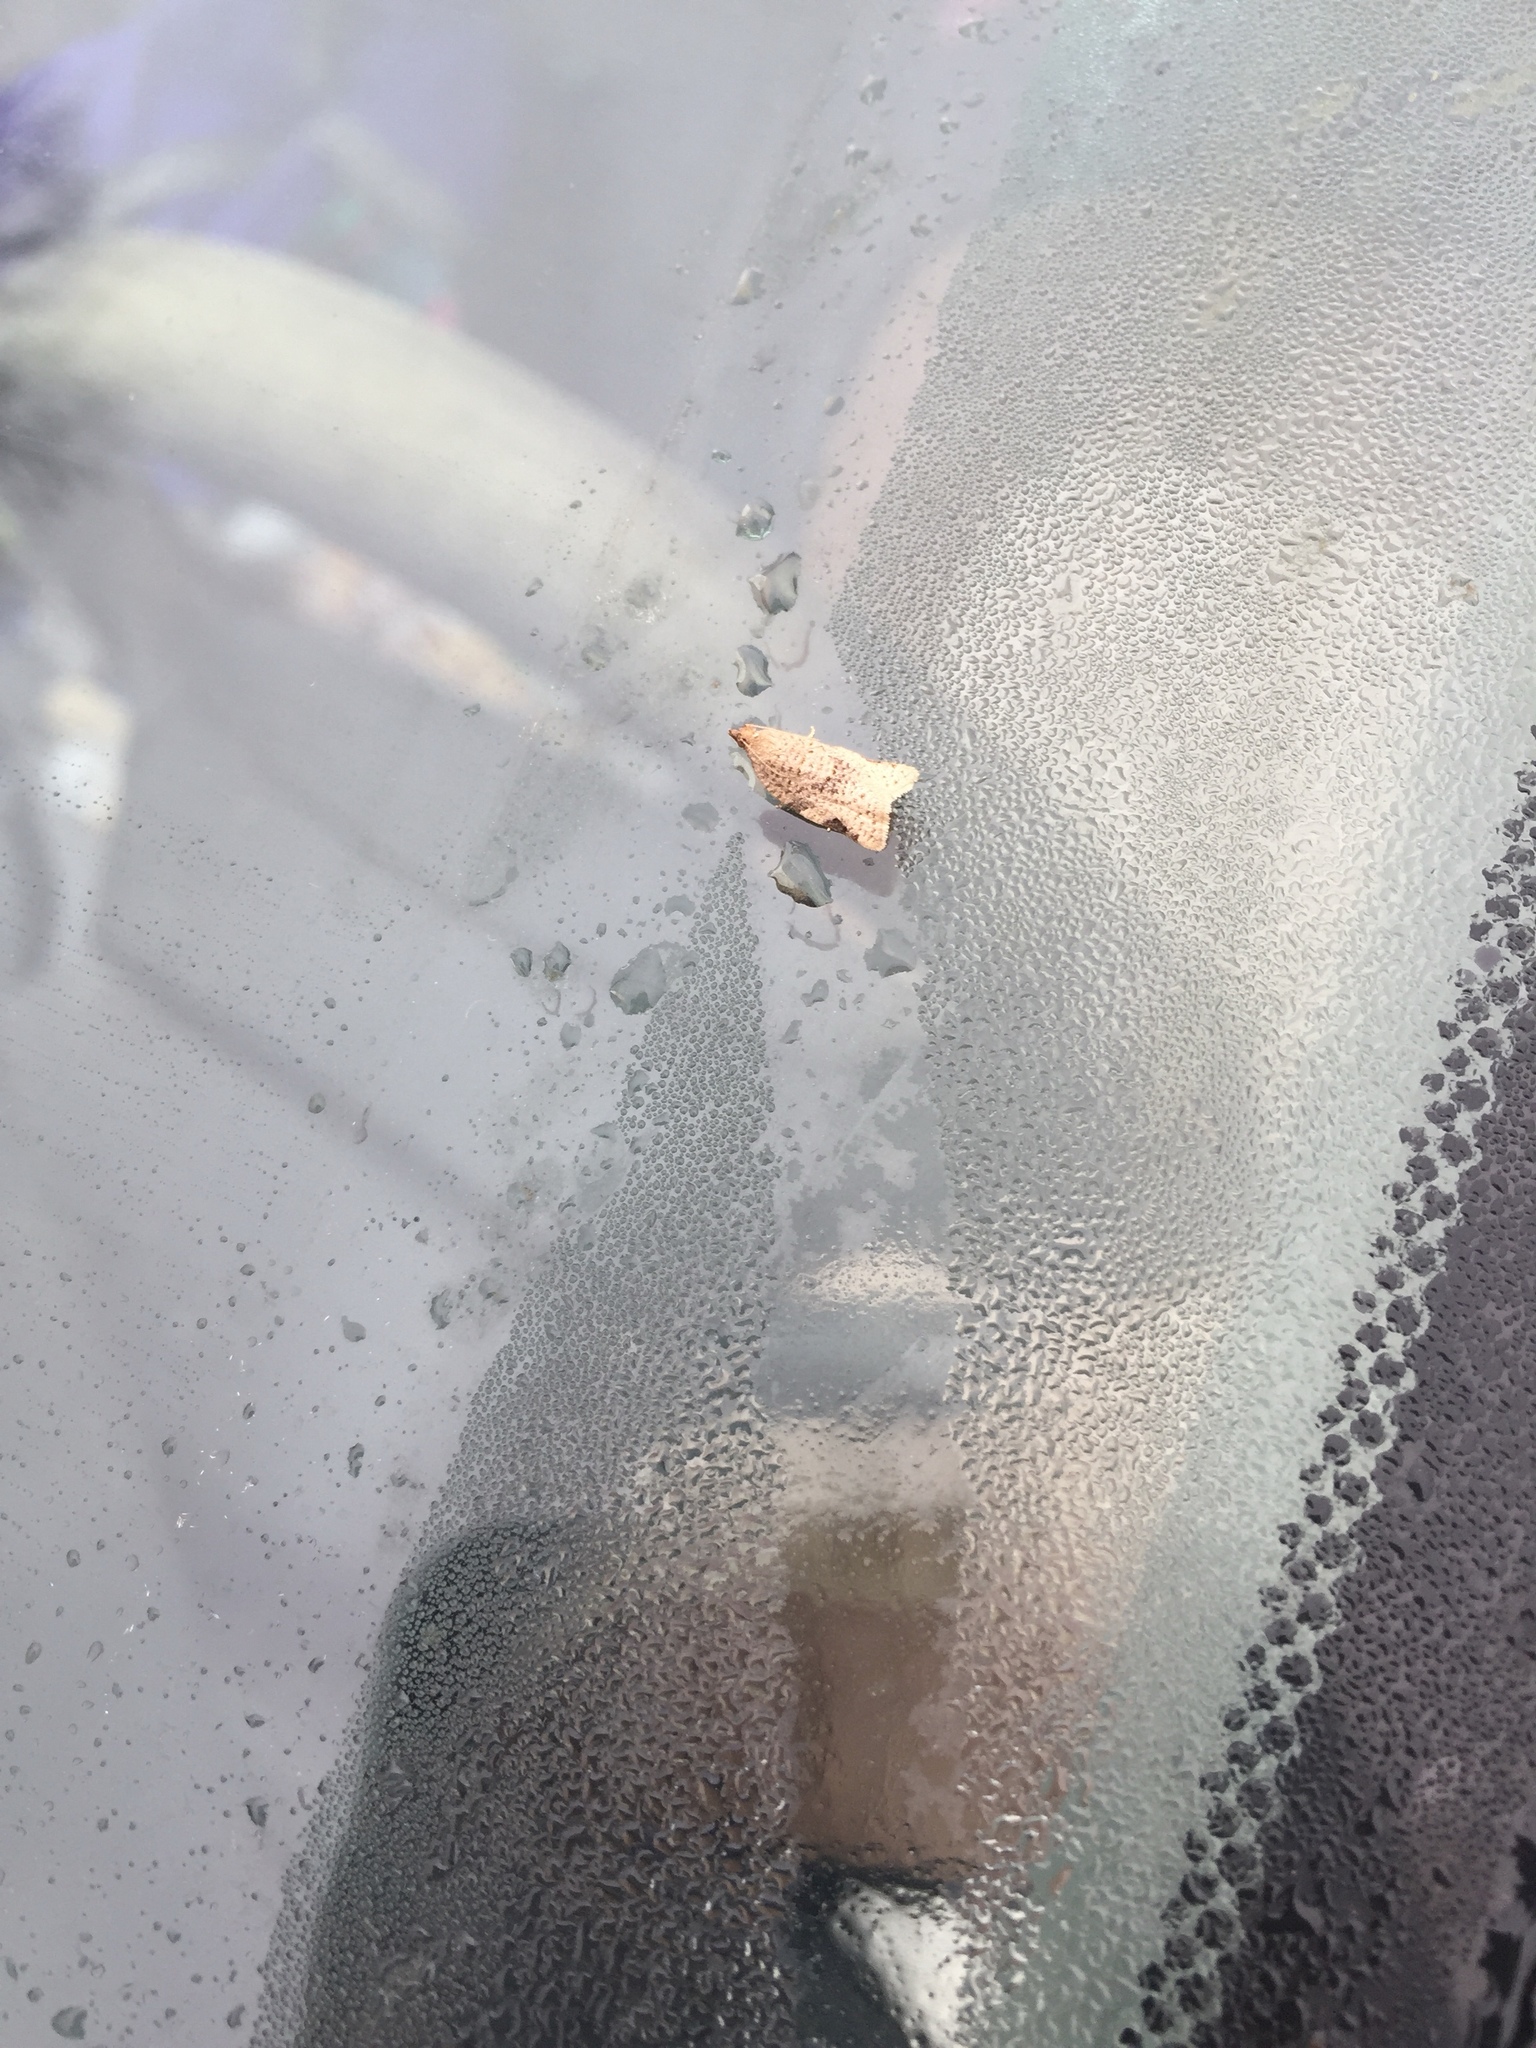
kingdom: Animalia
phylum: Arthropoda
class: Insecta
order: Lepidoptera
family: Tortricidae
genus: Clepsis
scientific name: Clepsis virescana
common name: Greenish apple moth
